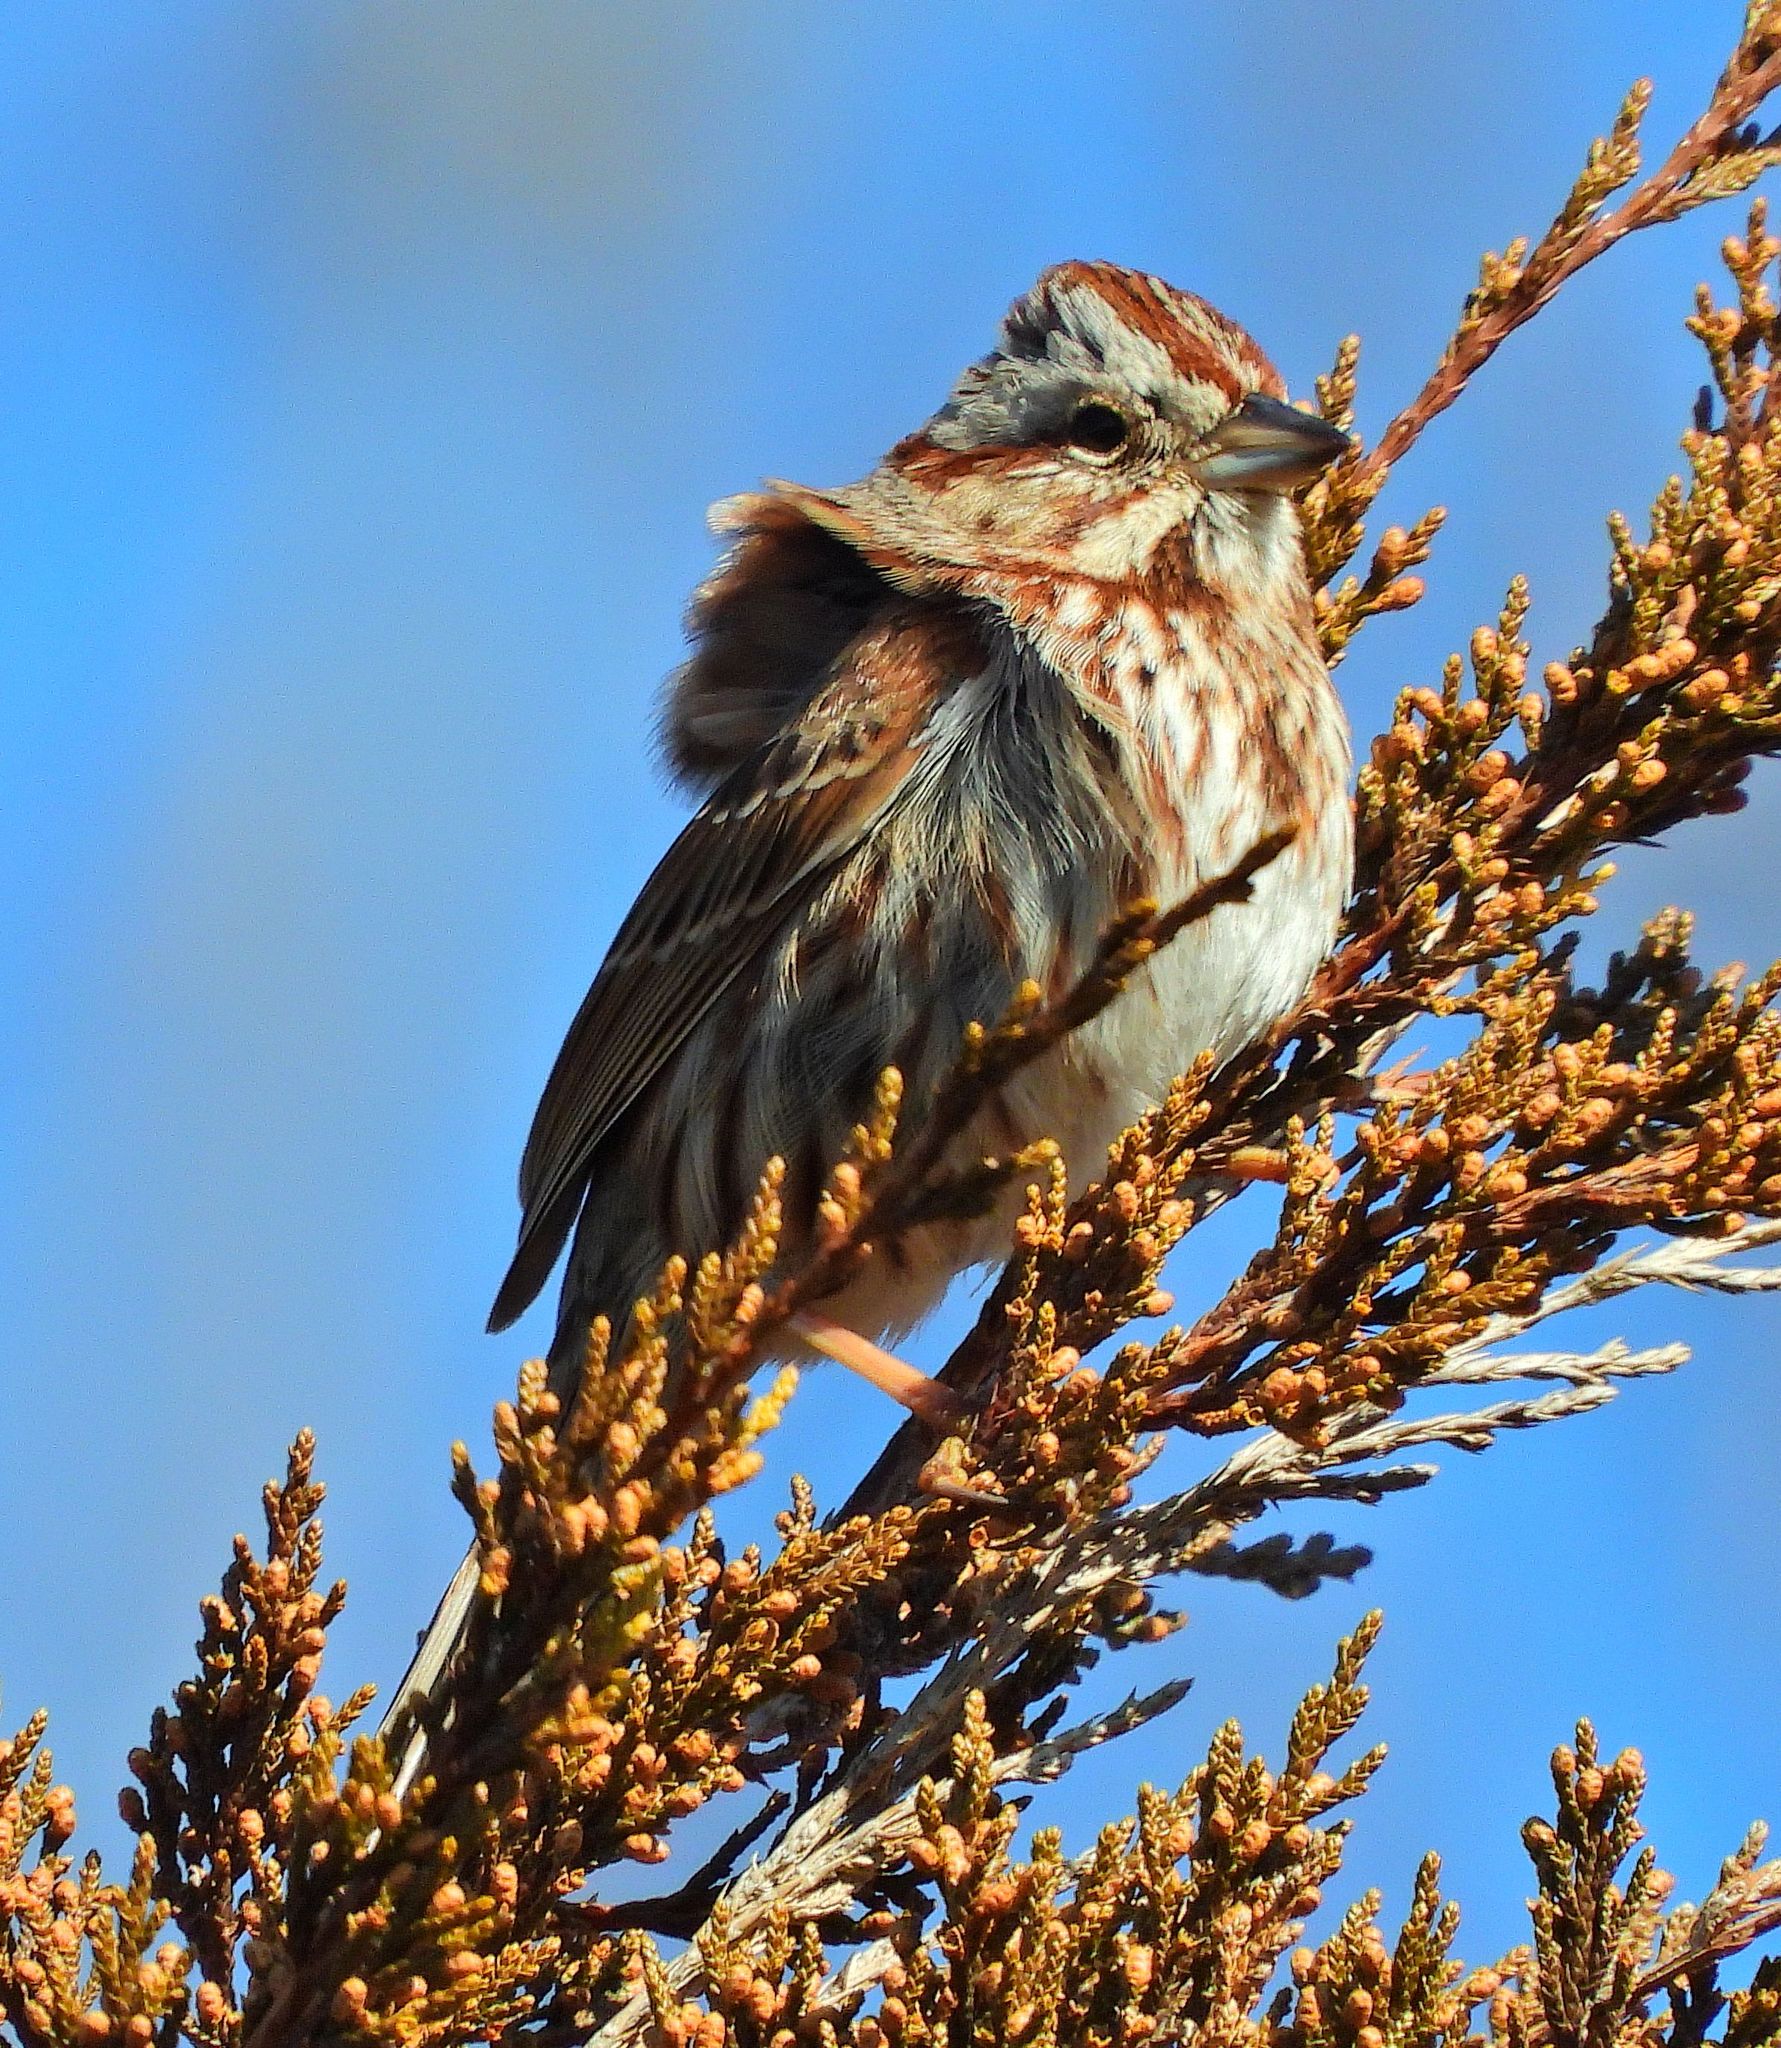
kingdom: Animalia
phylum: Chordata
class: Aves
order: Passeriformes
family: Passerellidae
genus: Melospiza
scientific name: Melospiza melodia
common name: Song sparrow
